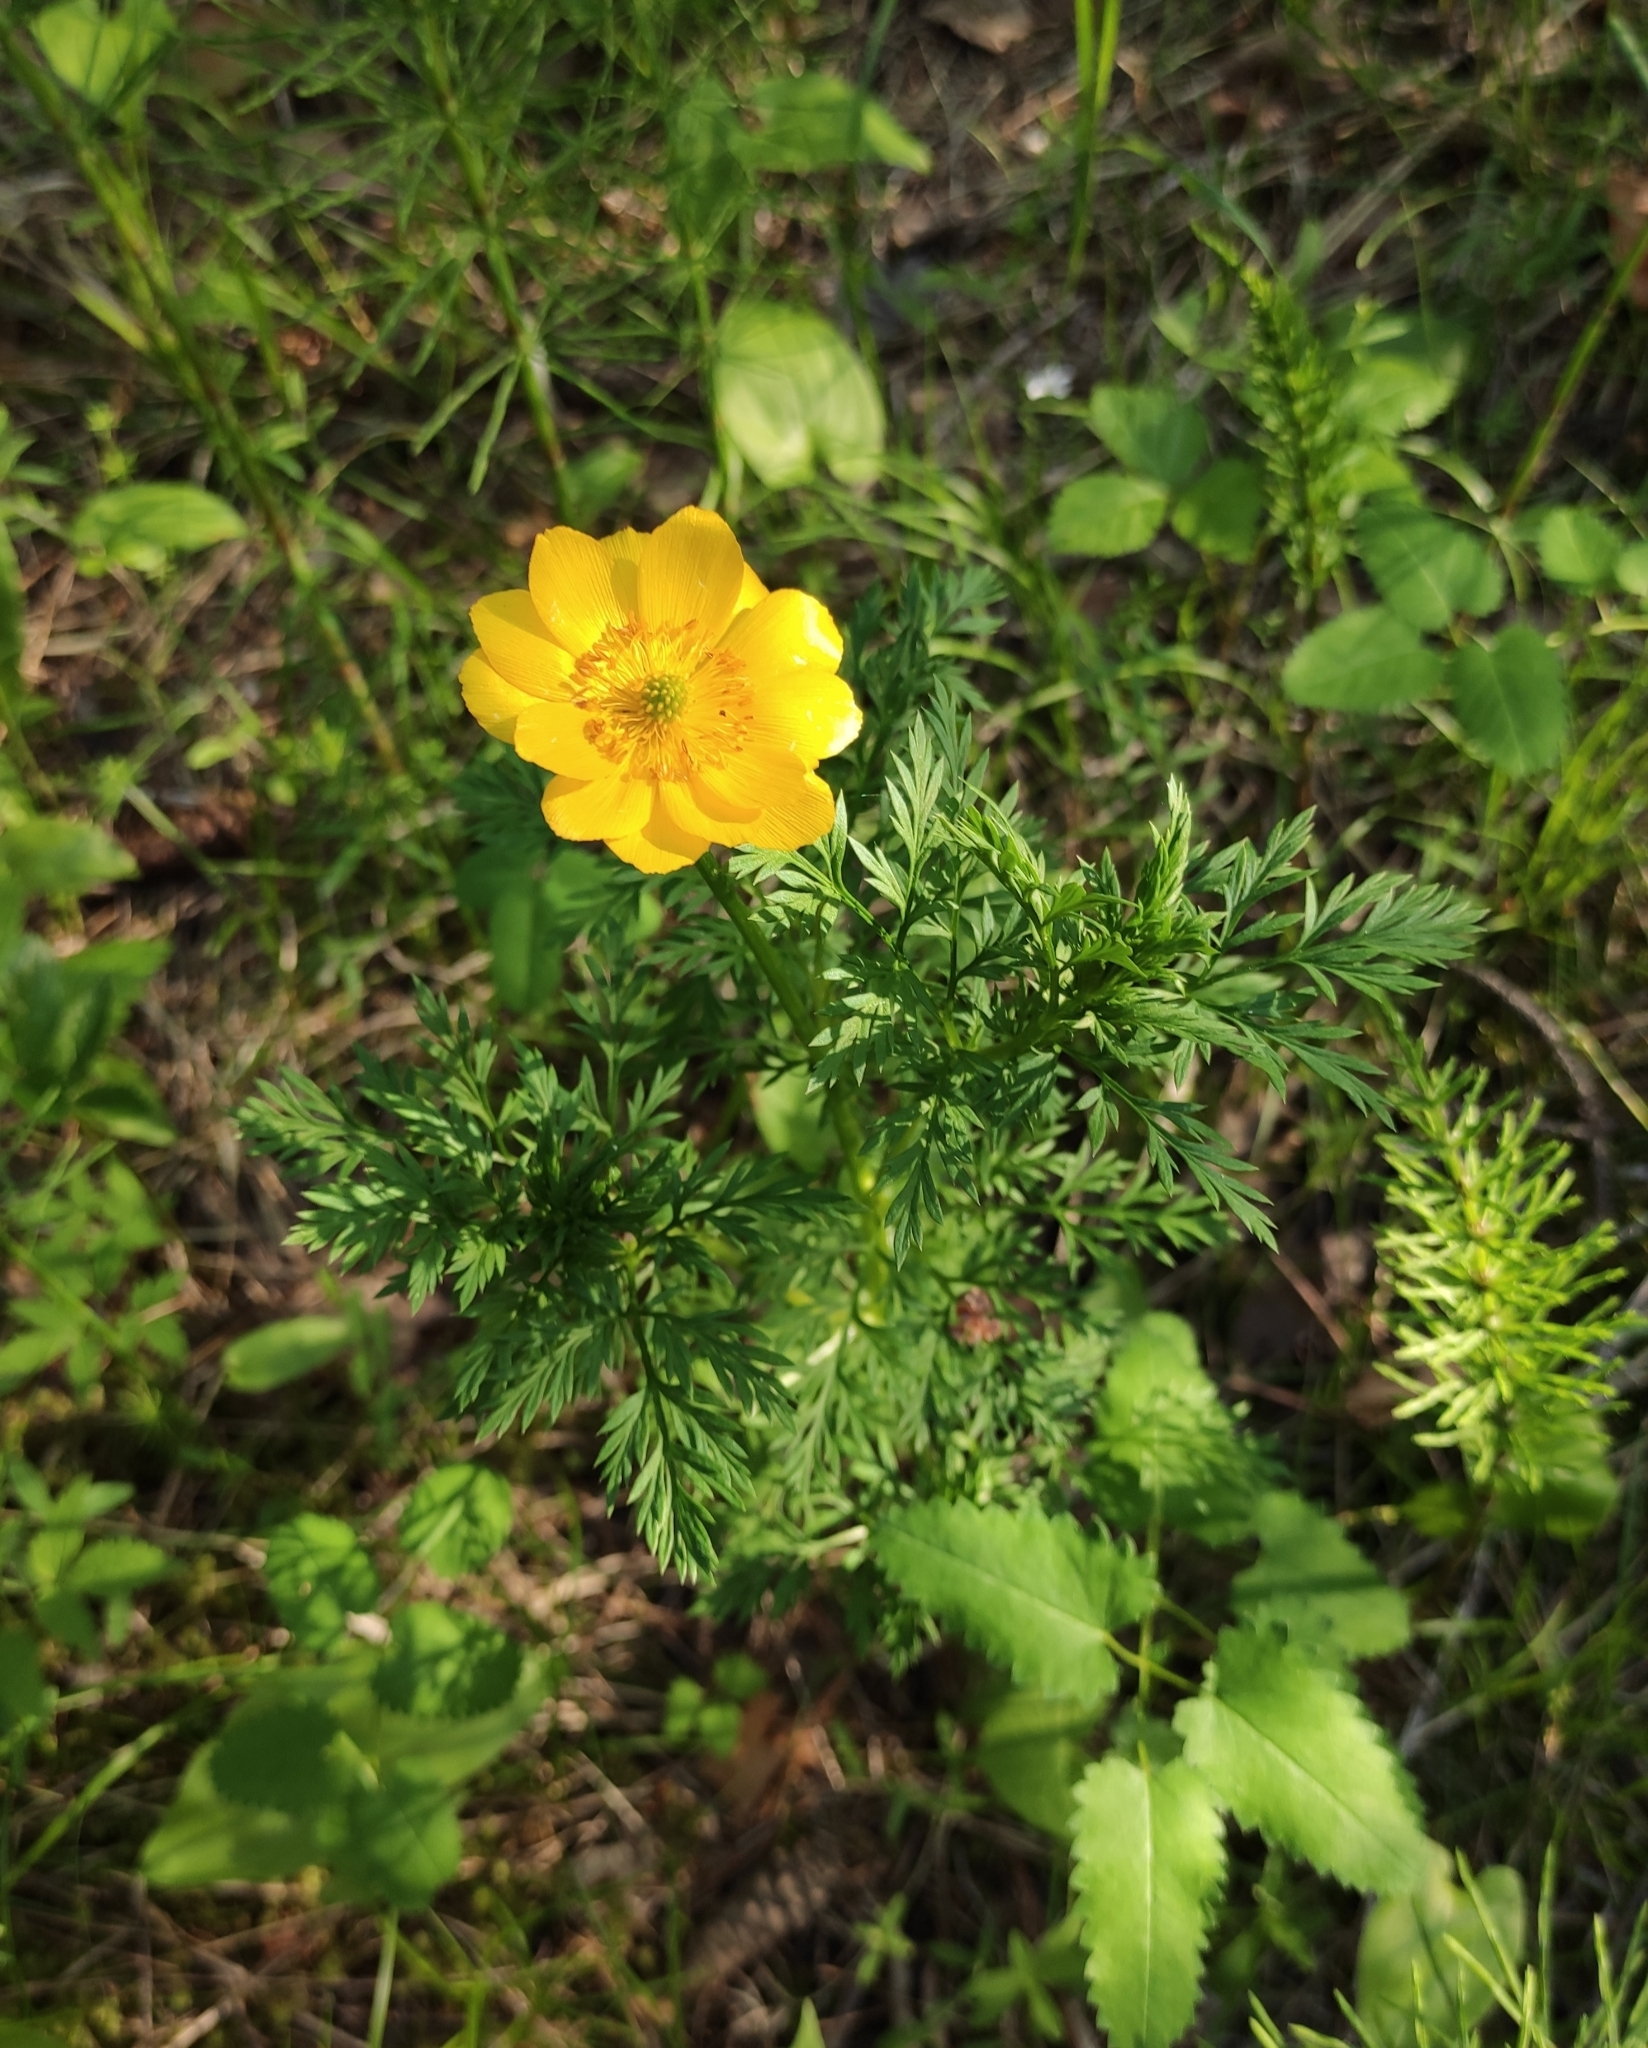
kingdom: Plantae
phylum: Tracheophyta
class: Magnoliopsida
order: Ranunculales
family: Ranunculaceae
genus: Adonis
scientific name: Adonis
